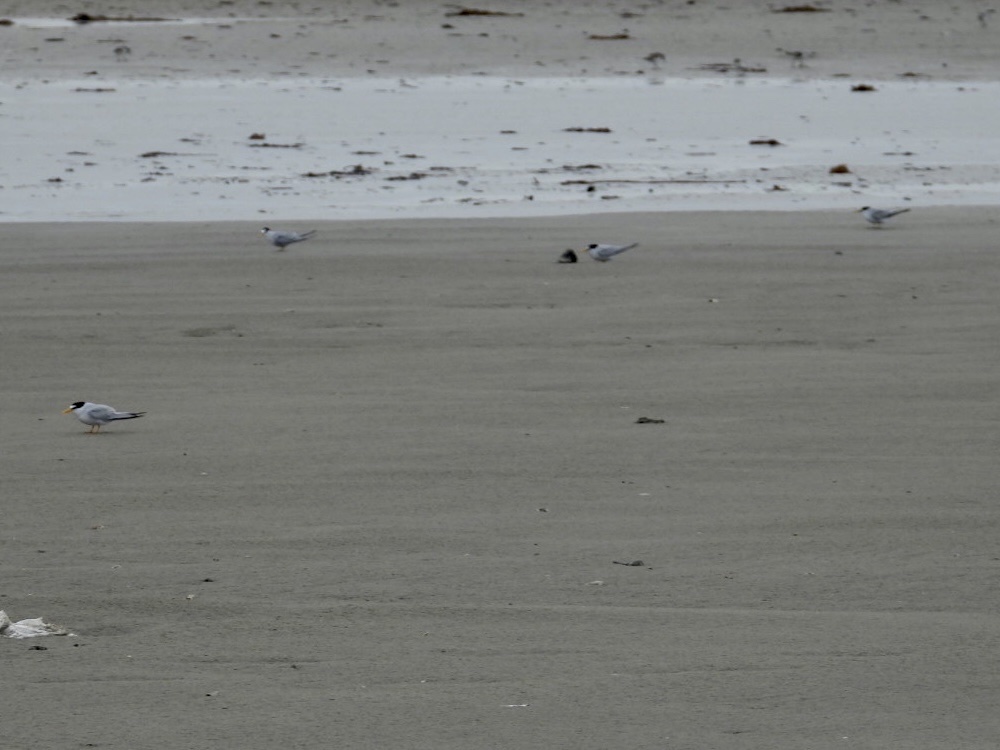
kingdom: Animalia
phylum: Chordata
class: Aves
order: Charadriiformes
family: Laridae
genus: Sternula
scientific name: Sternula antillarum
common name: Least tern
